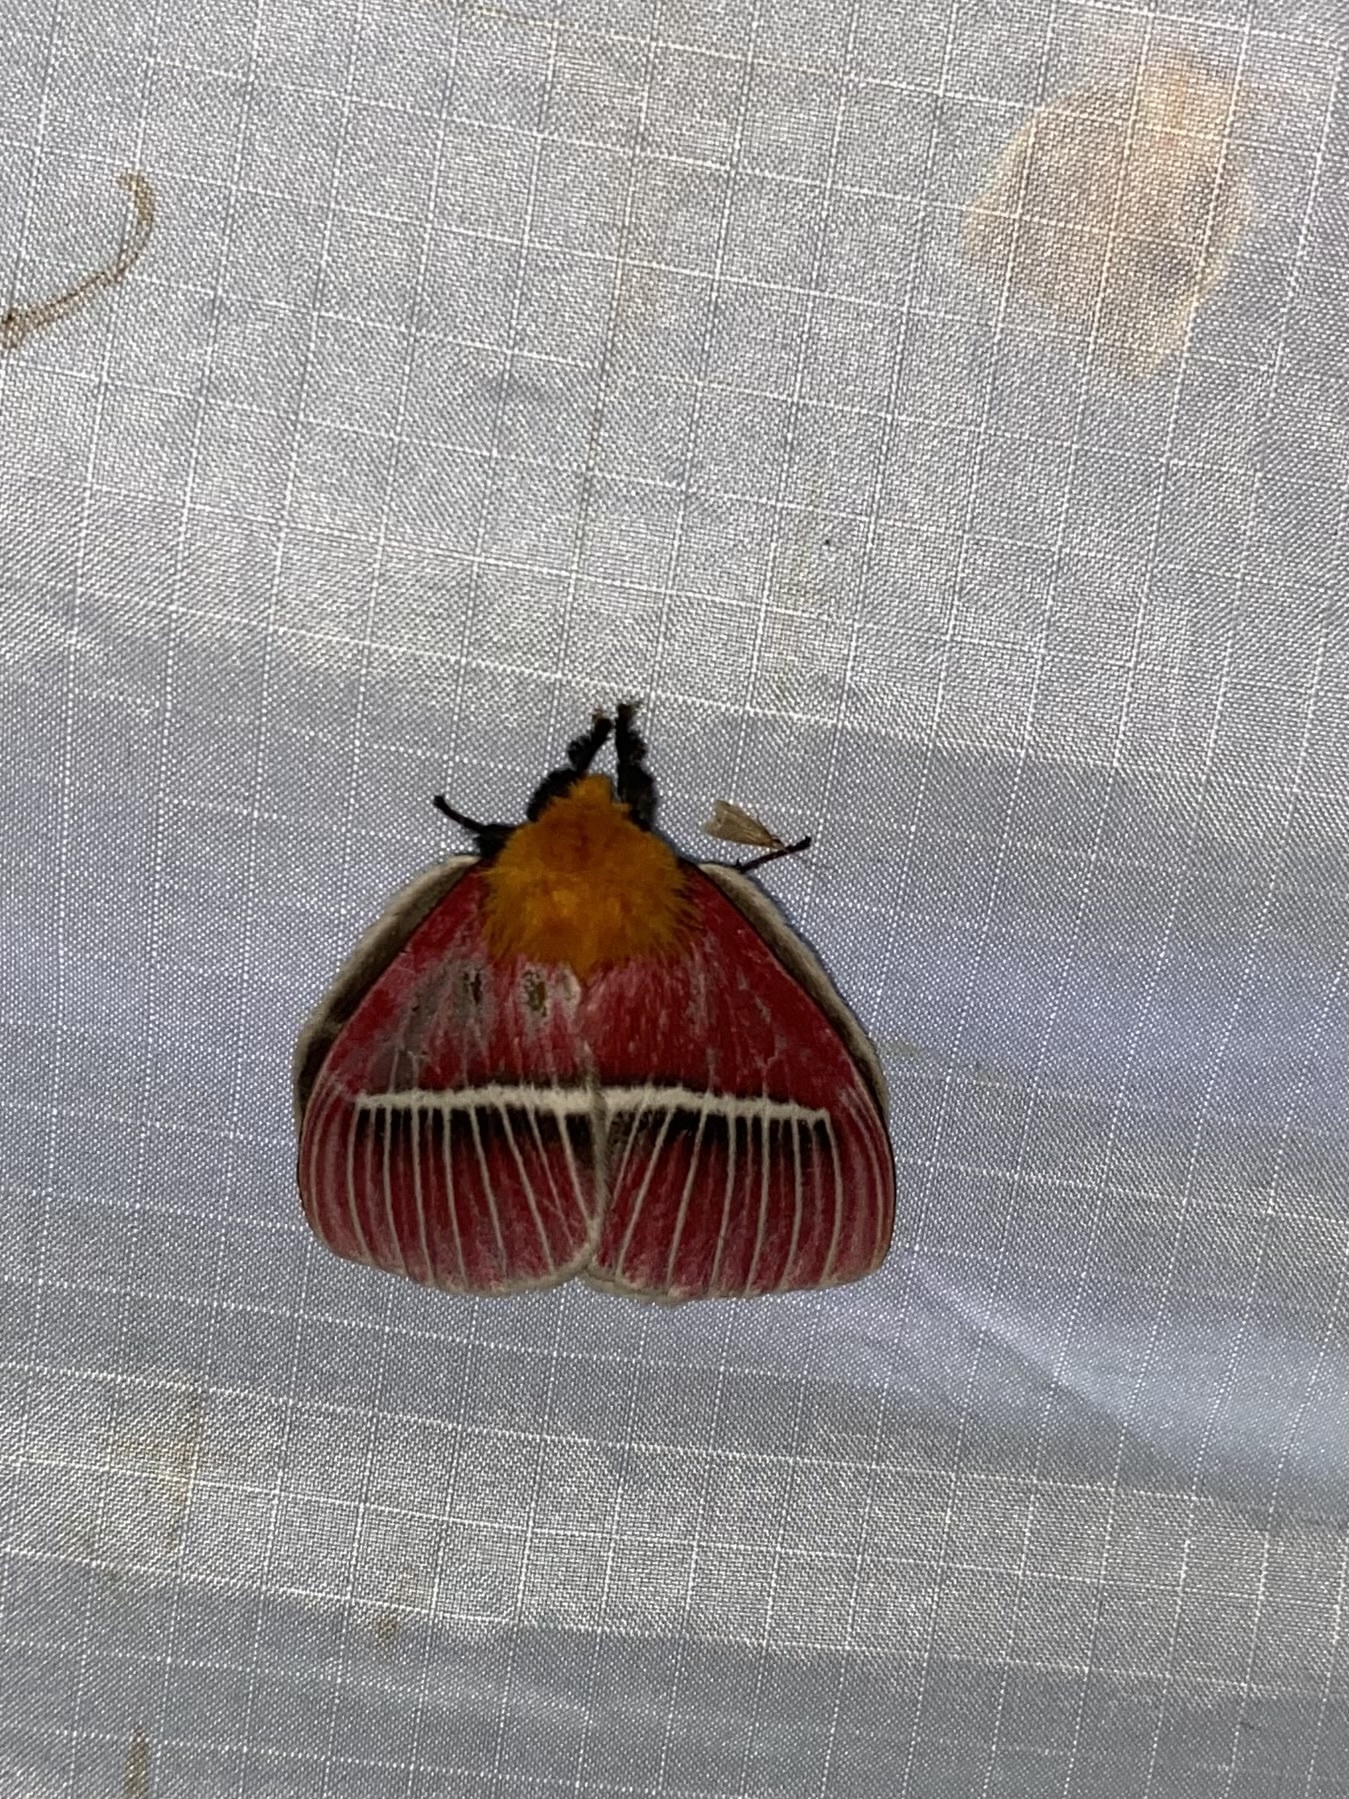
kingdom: Animalia
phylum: Arthropoda
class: Insecta
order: Lepidoptera
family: Saturniidae
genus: Pseudodirphia
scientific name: Pseudodirphia menander
